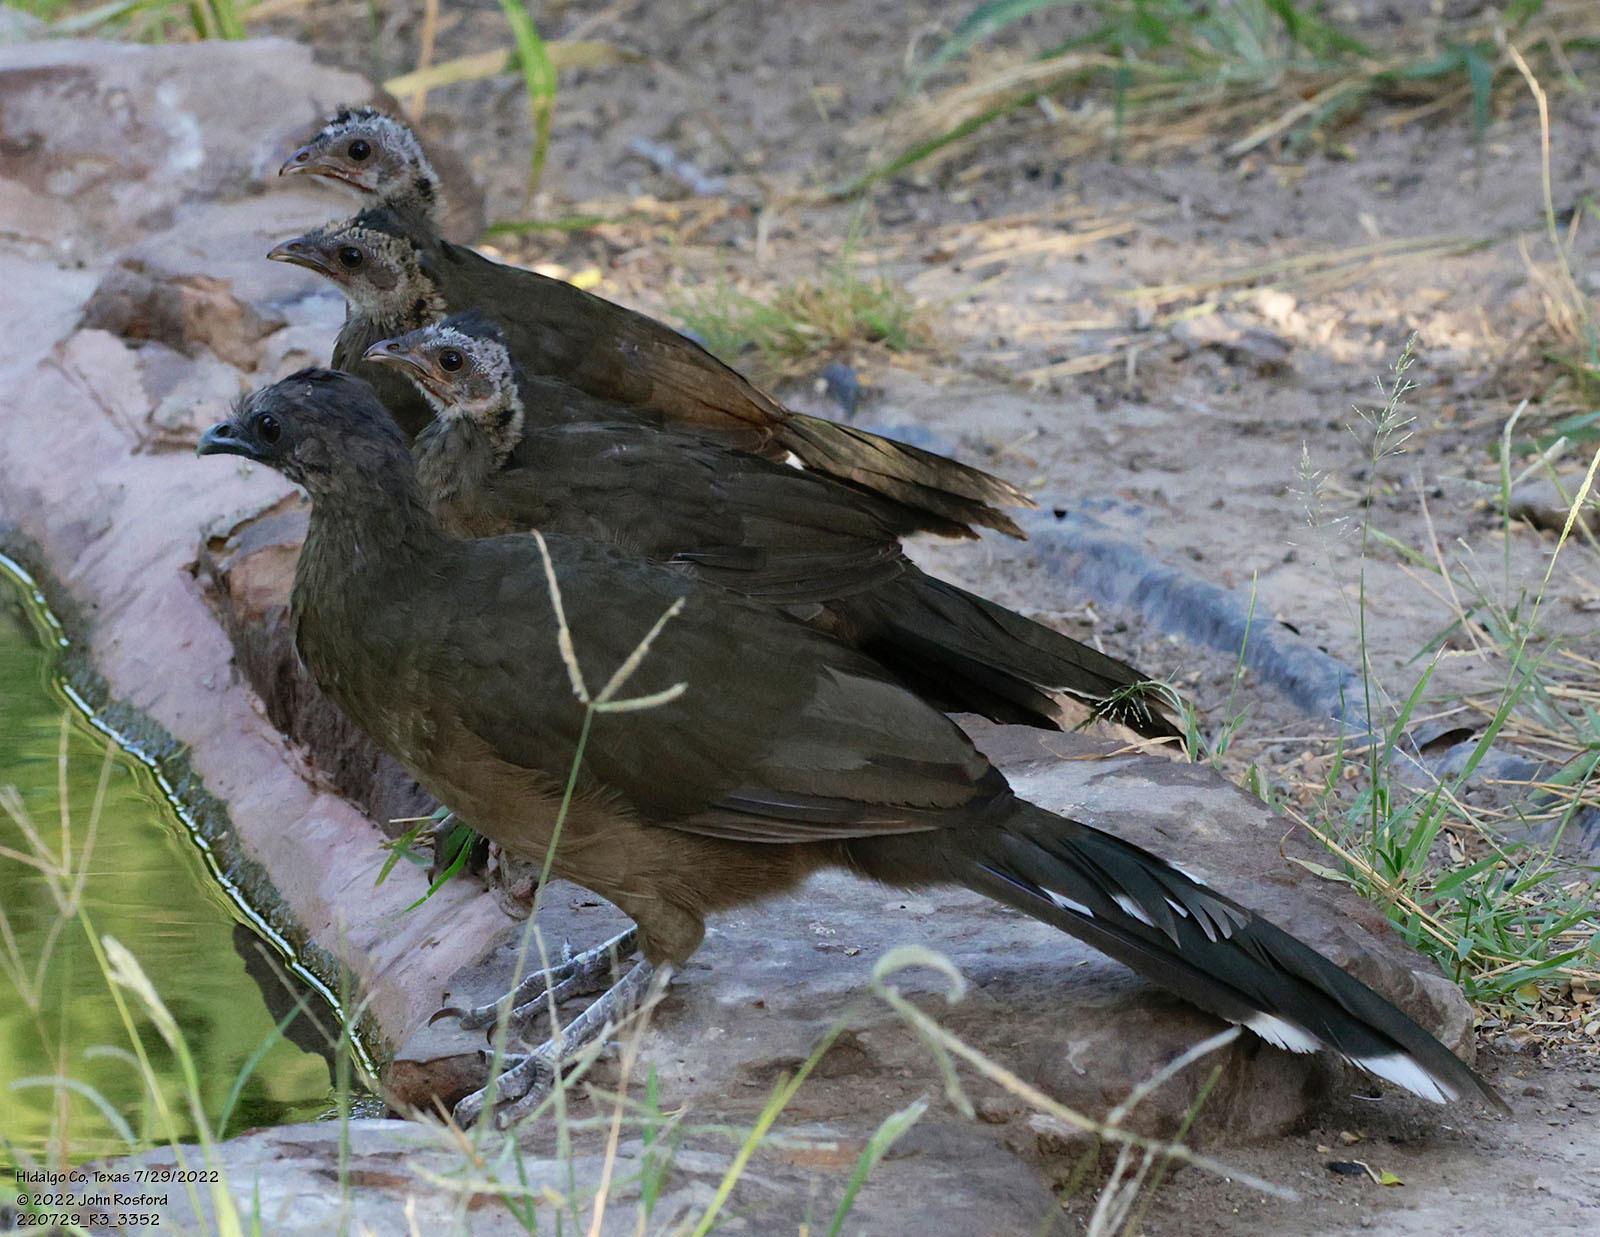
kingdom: Animalia
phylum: Chordata
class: Aves
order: Galliformes
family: Cracidae
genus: Ortalis
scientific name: Ortalis vetula
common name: Plain chachalaca
